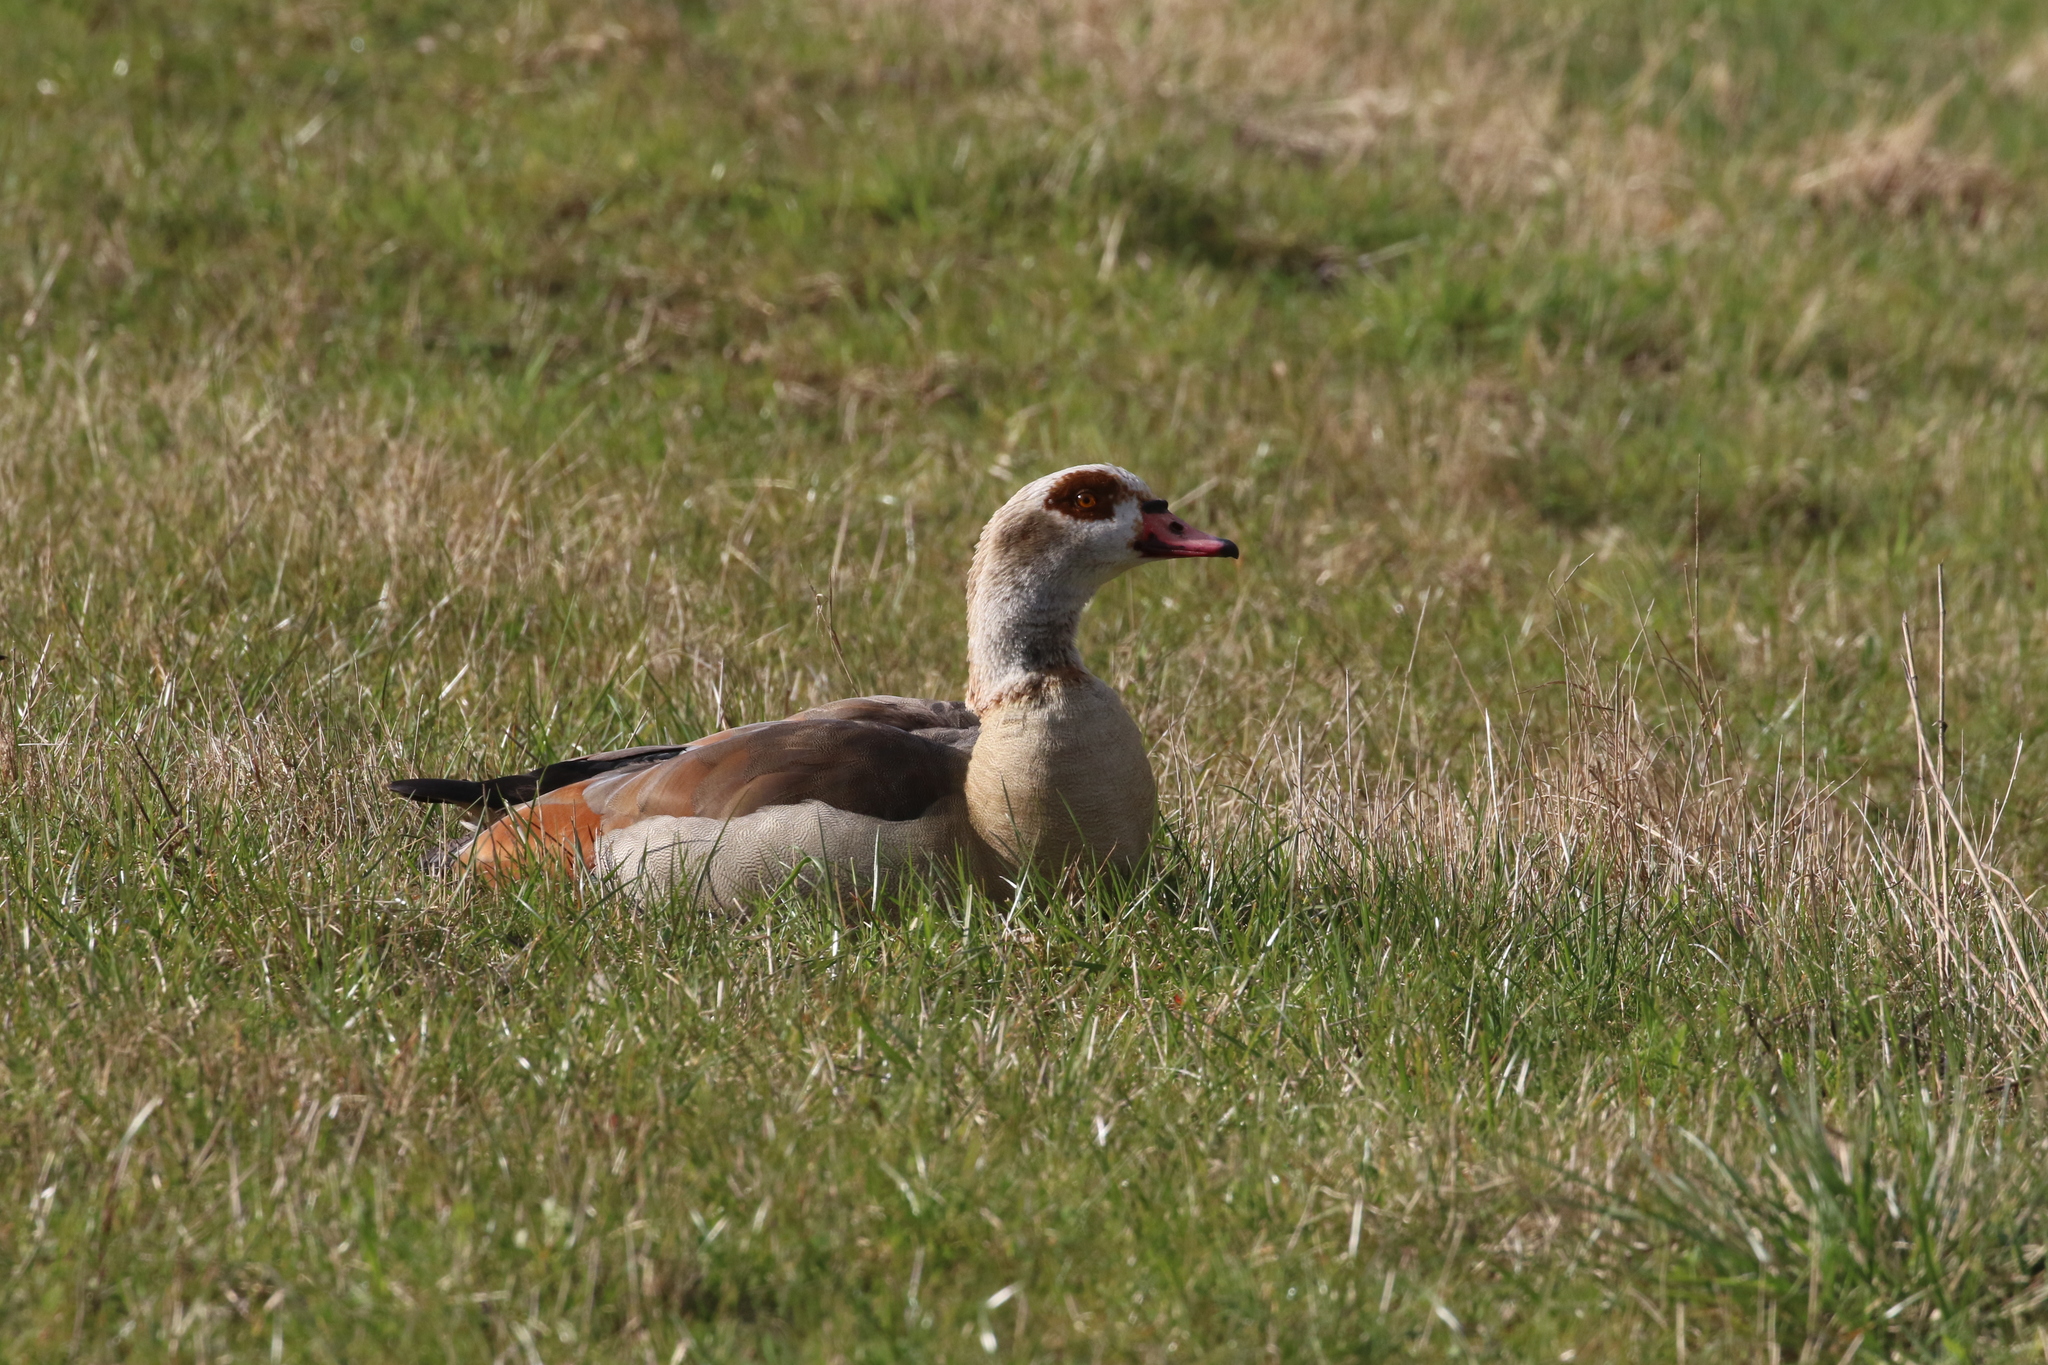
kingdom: Animalia
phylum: Chordata
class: Aves
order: Anseriformes
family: Anatidae
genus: Alopochen
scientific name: Alopochen aegyptiaca
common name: Egyptian goose
